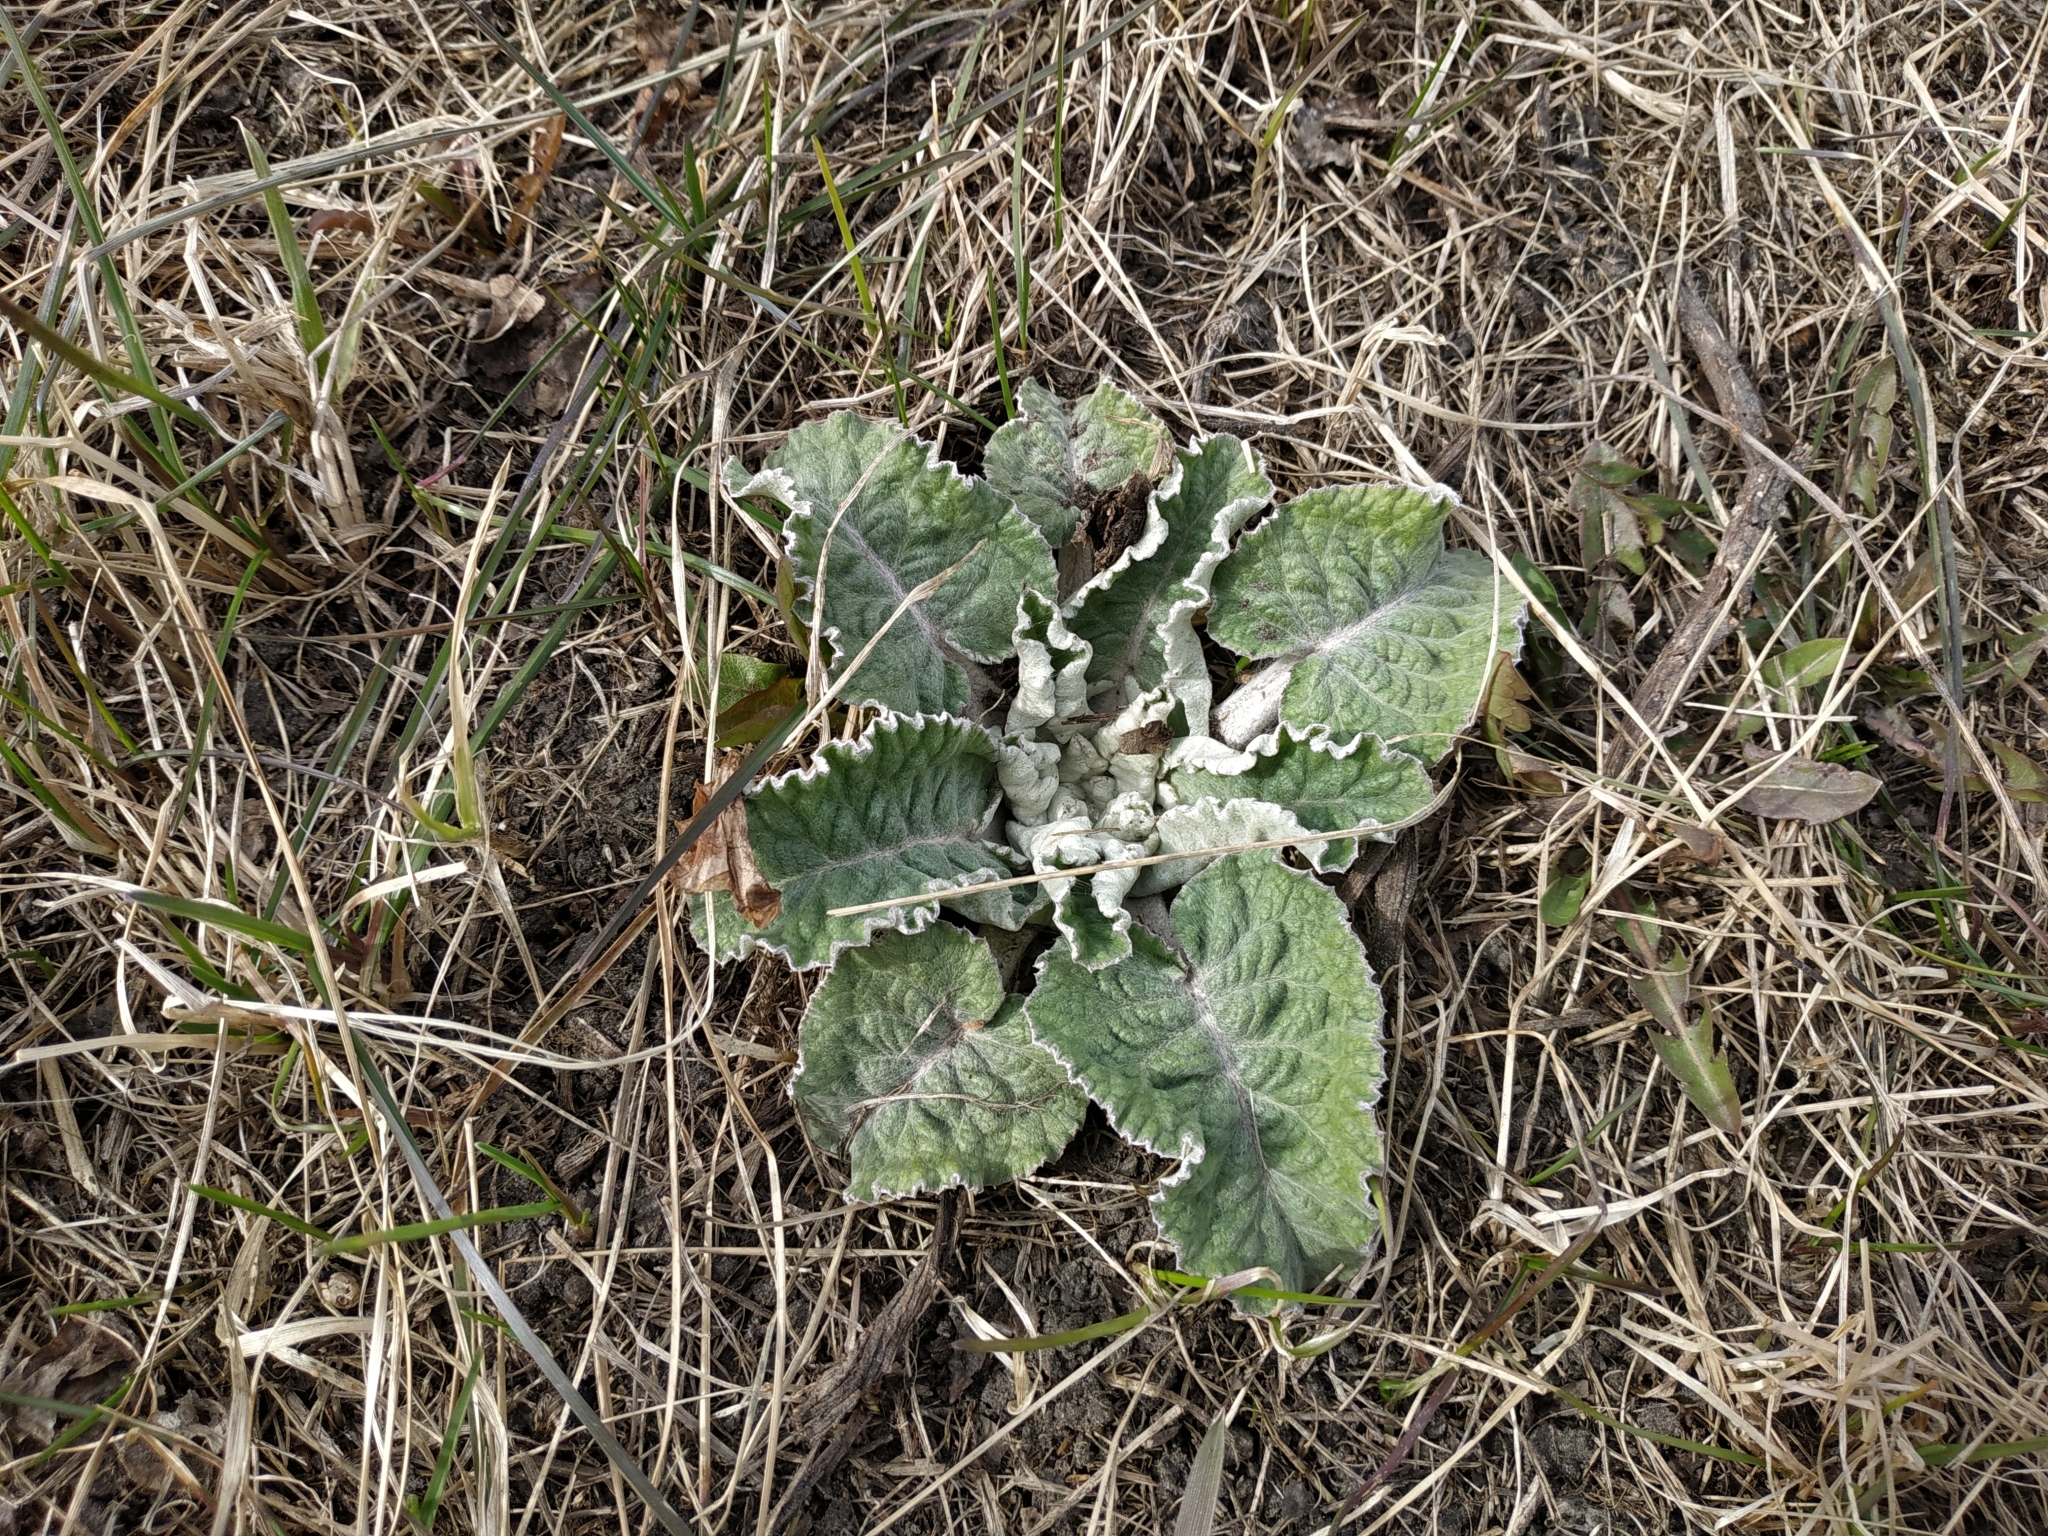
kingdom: Plantae
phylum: Tracheophyta
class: Magnoliopsida
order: Asterales
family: Asteraceae
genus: Arctium
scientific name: Arctium tomentosum
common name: Woolly burdock
